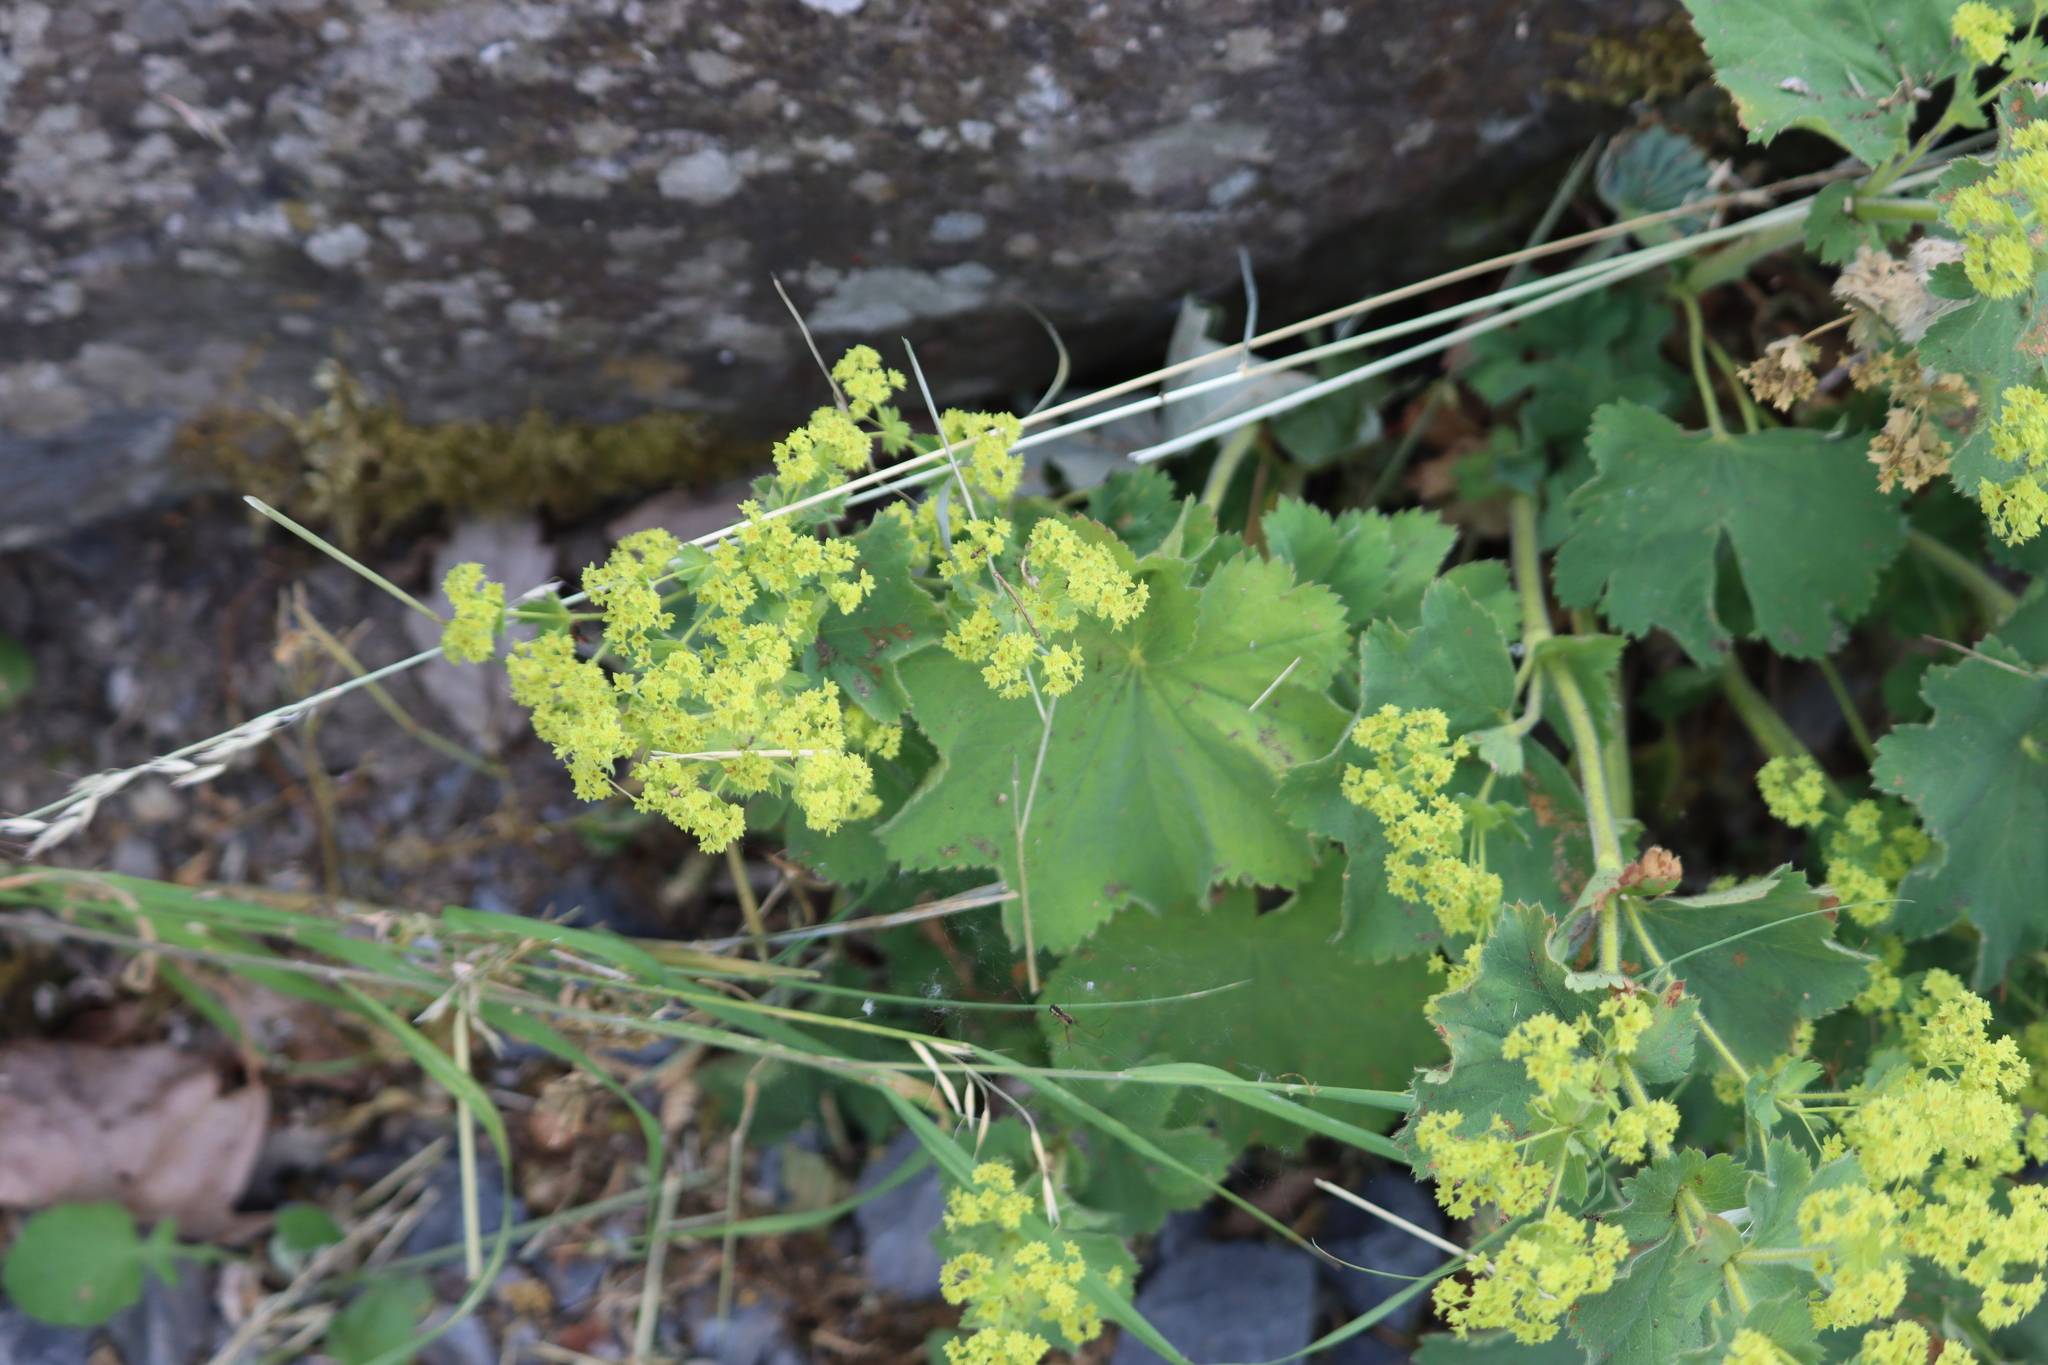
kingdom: Plantae
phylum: Tracheophyta
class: Magnoliopsida
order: Rosales
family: Rosaceae
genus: Alchemilla
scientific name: Alchemilla mollis
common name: Lady's-mantle
